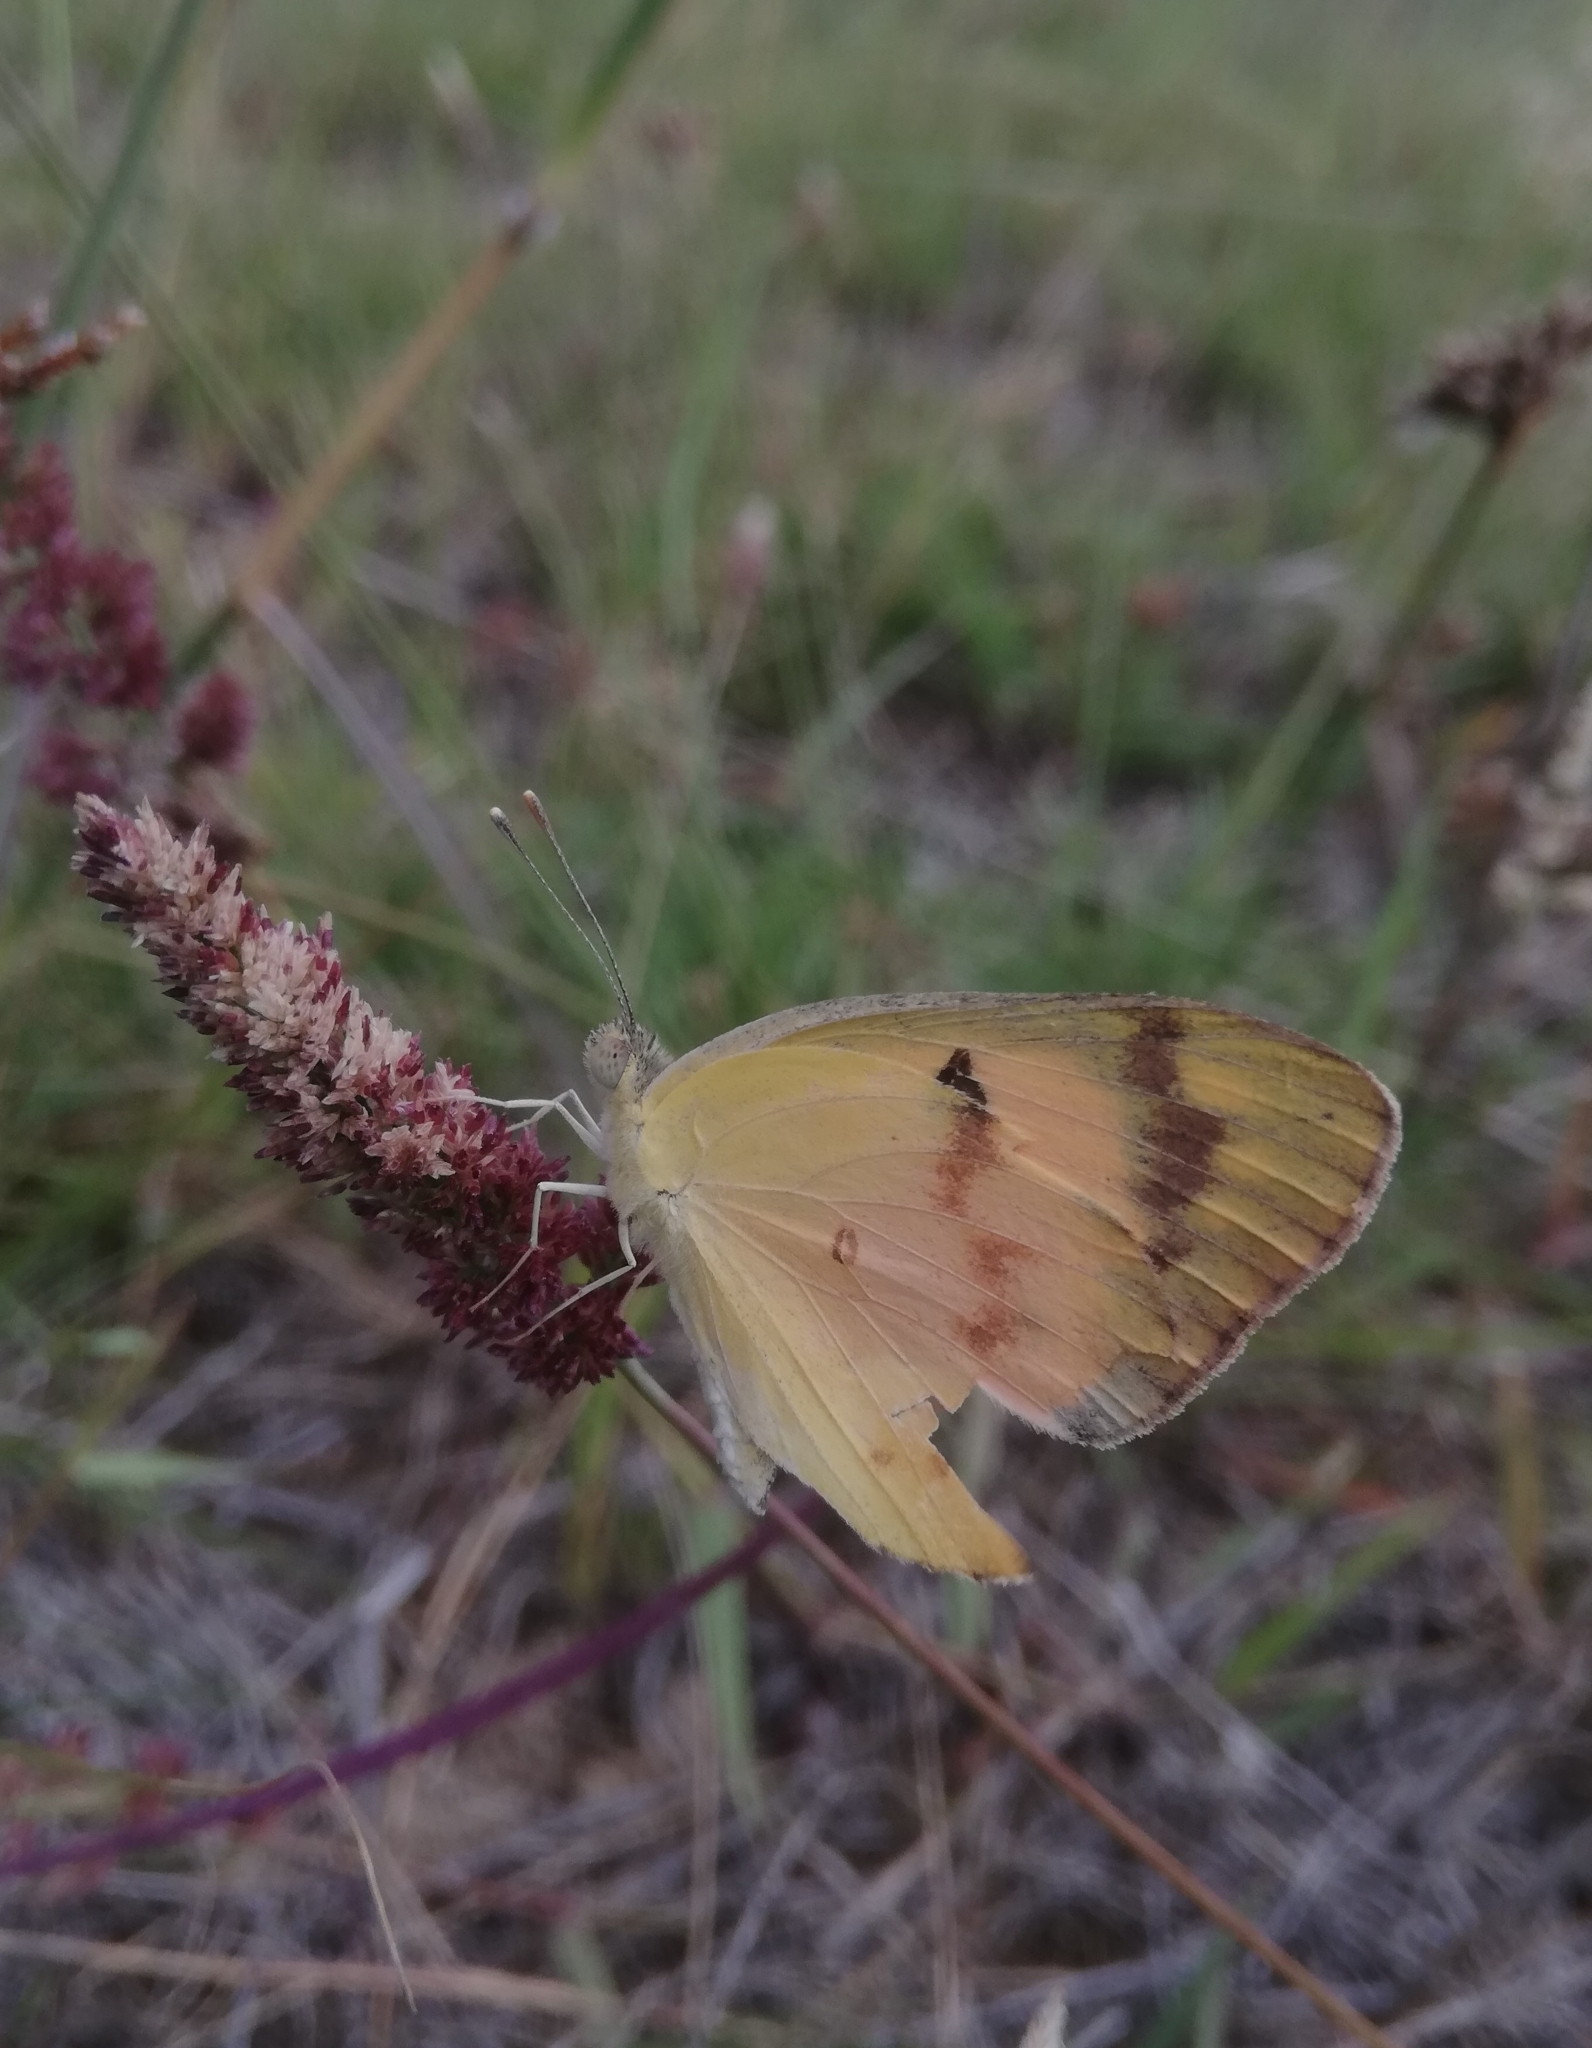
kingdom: Animalia
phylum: Arthropoda
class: Insecta
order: Lepidoptera
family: Pieridae
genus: Colotis
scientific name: Colotis fausta
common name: Large salmon arab
